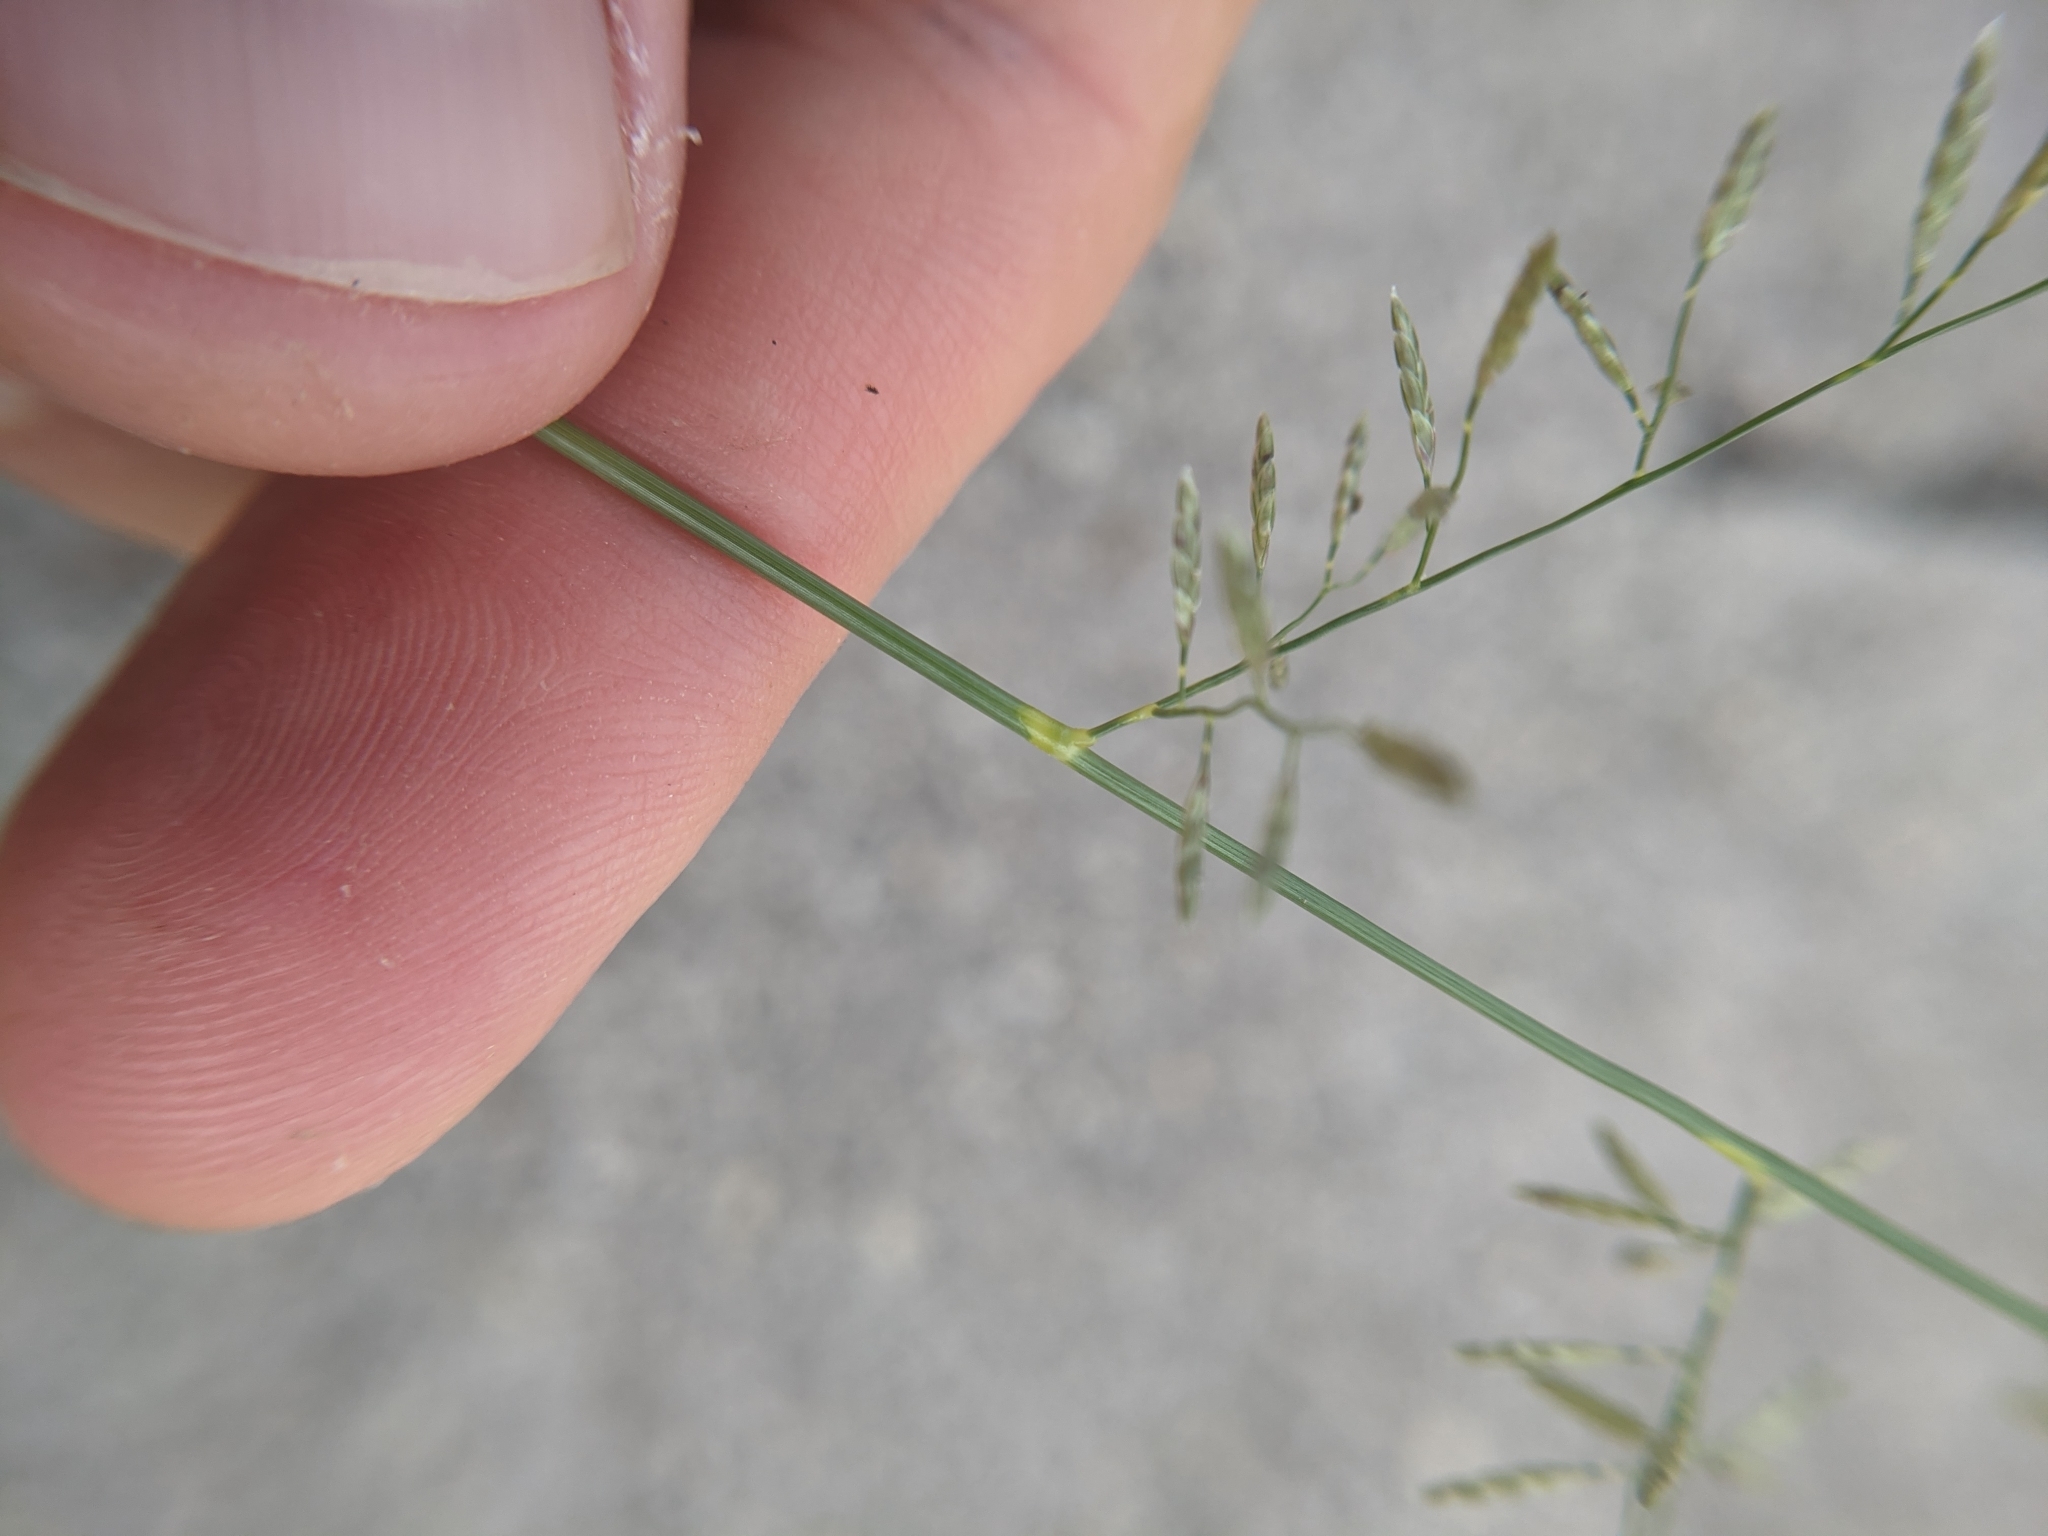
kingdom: Plantae
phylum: Tracheophyta
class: Liliopsida
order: Poales
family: Poaceae
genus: Eragrostis
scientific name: Eragrostis barrelieri
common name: Mediterranean lovegrass
